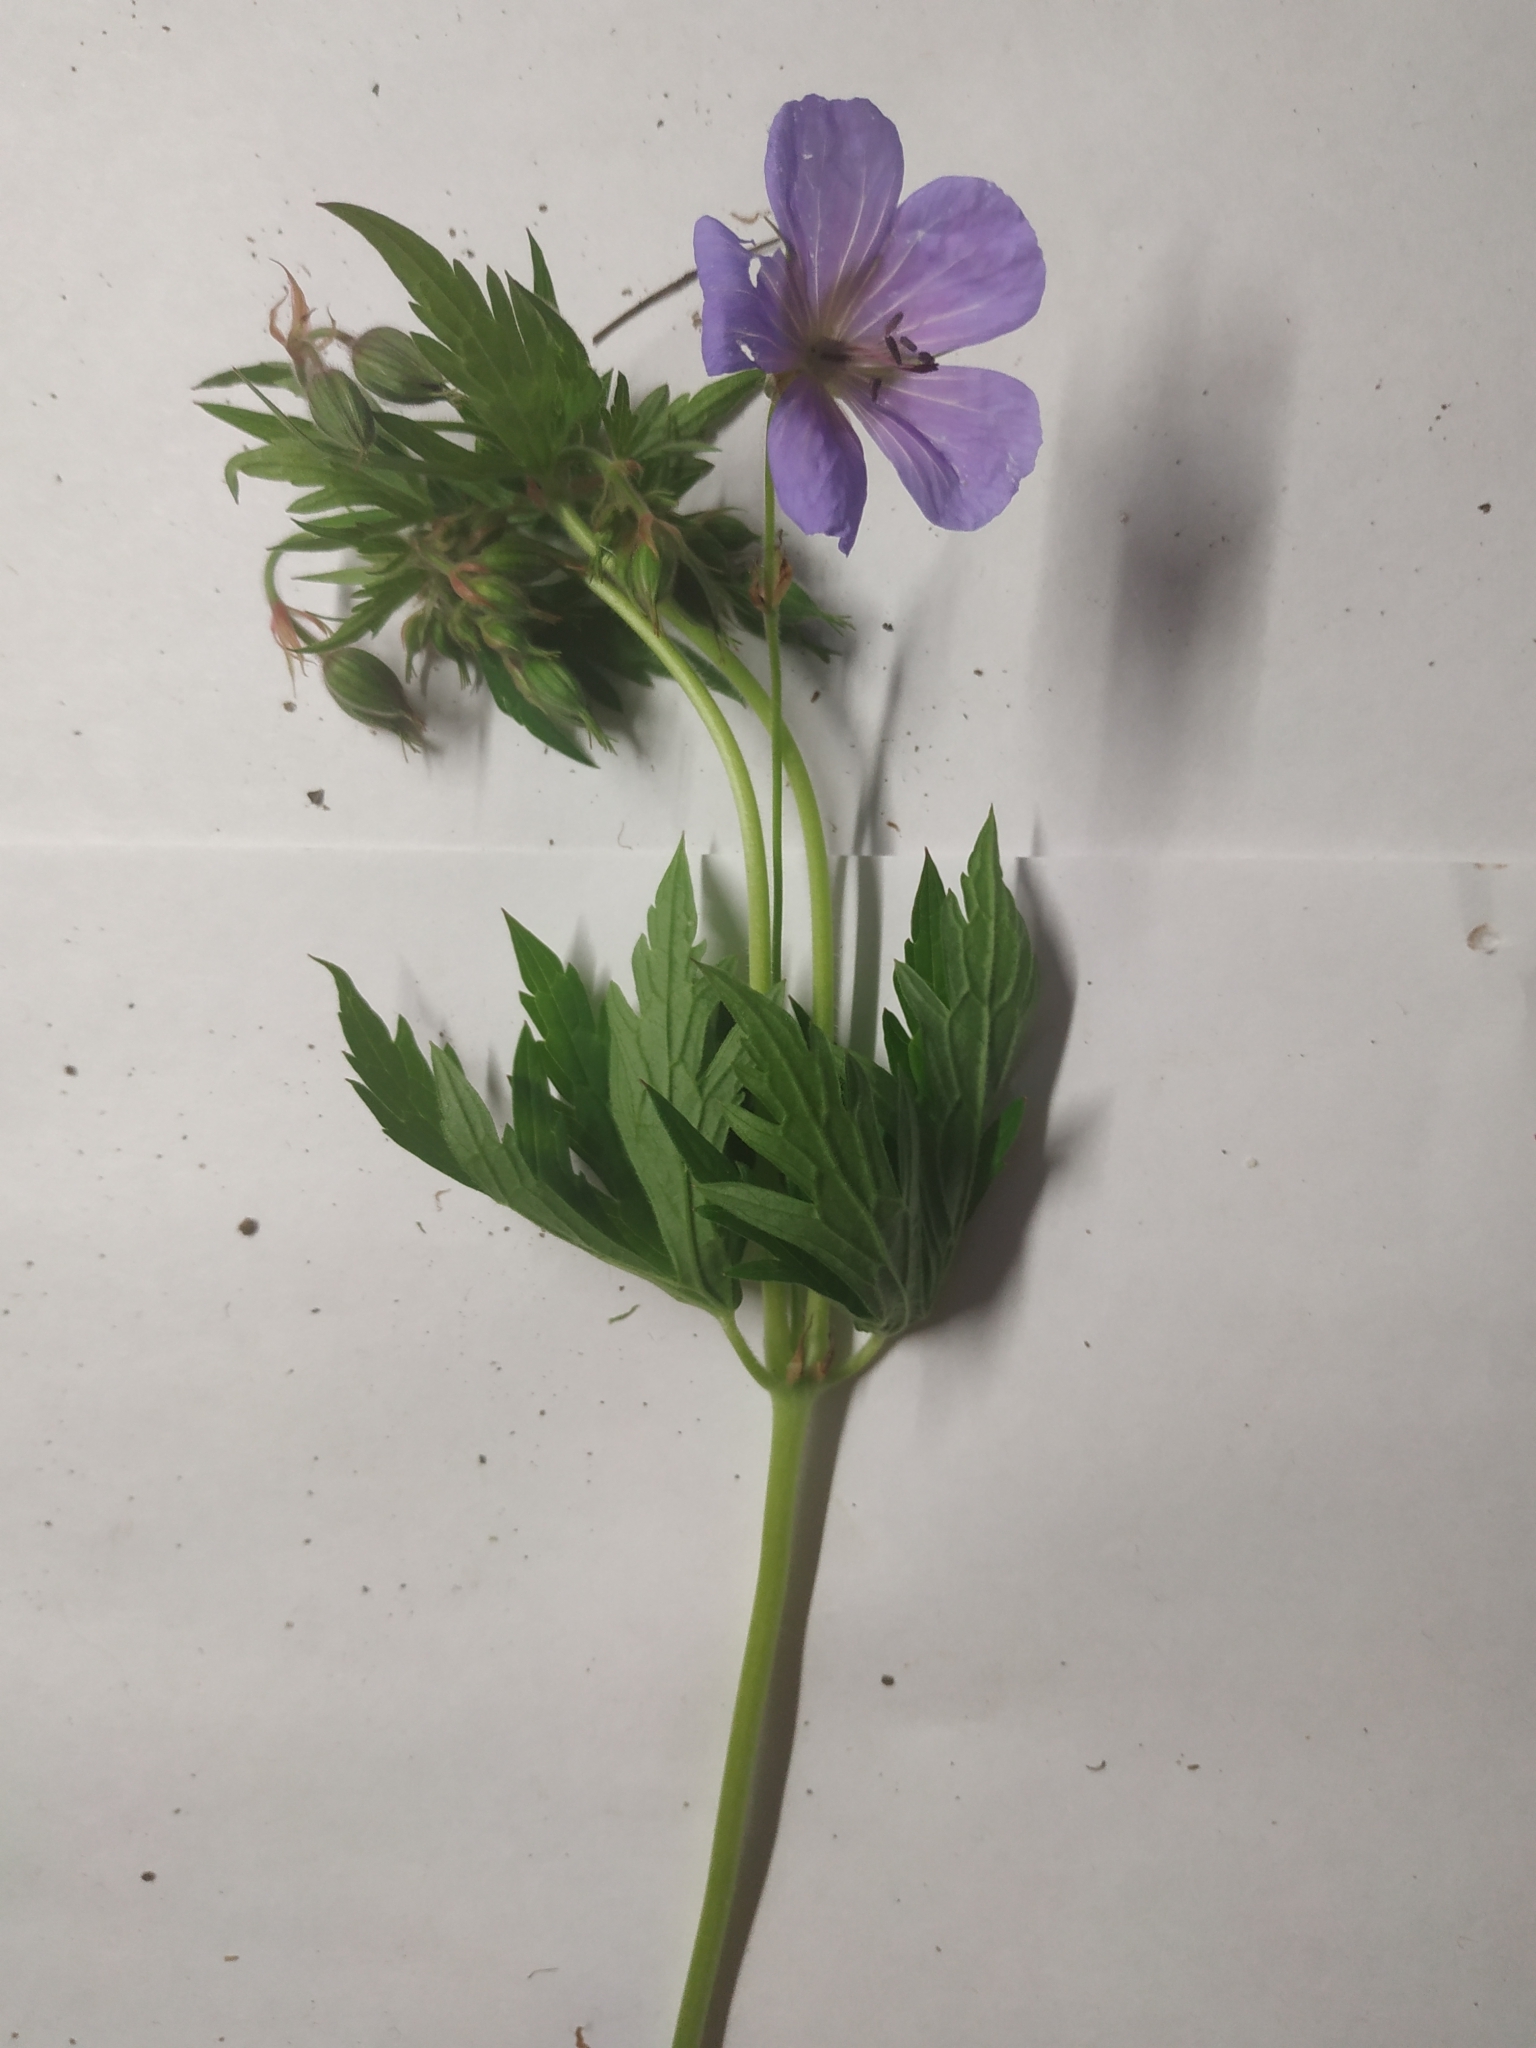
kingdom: Plantae
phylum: Tracheophyta
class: Magnoliopsida
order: Geraniales
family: Geraniaceae
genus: Geranium
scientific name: Geranium pratense
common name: Meadow crane's-bill
